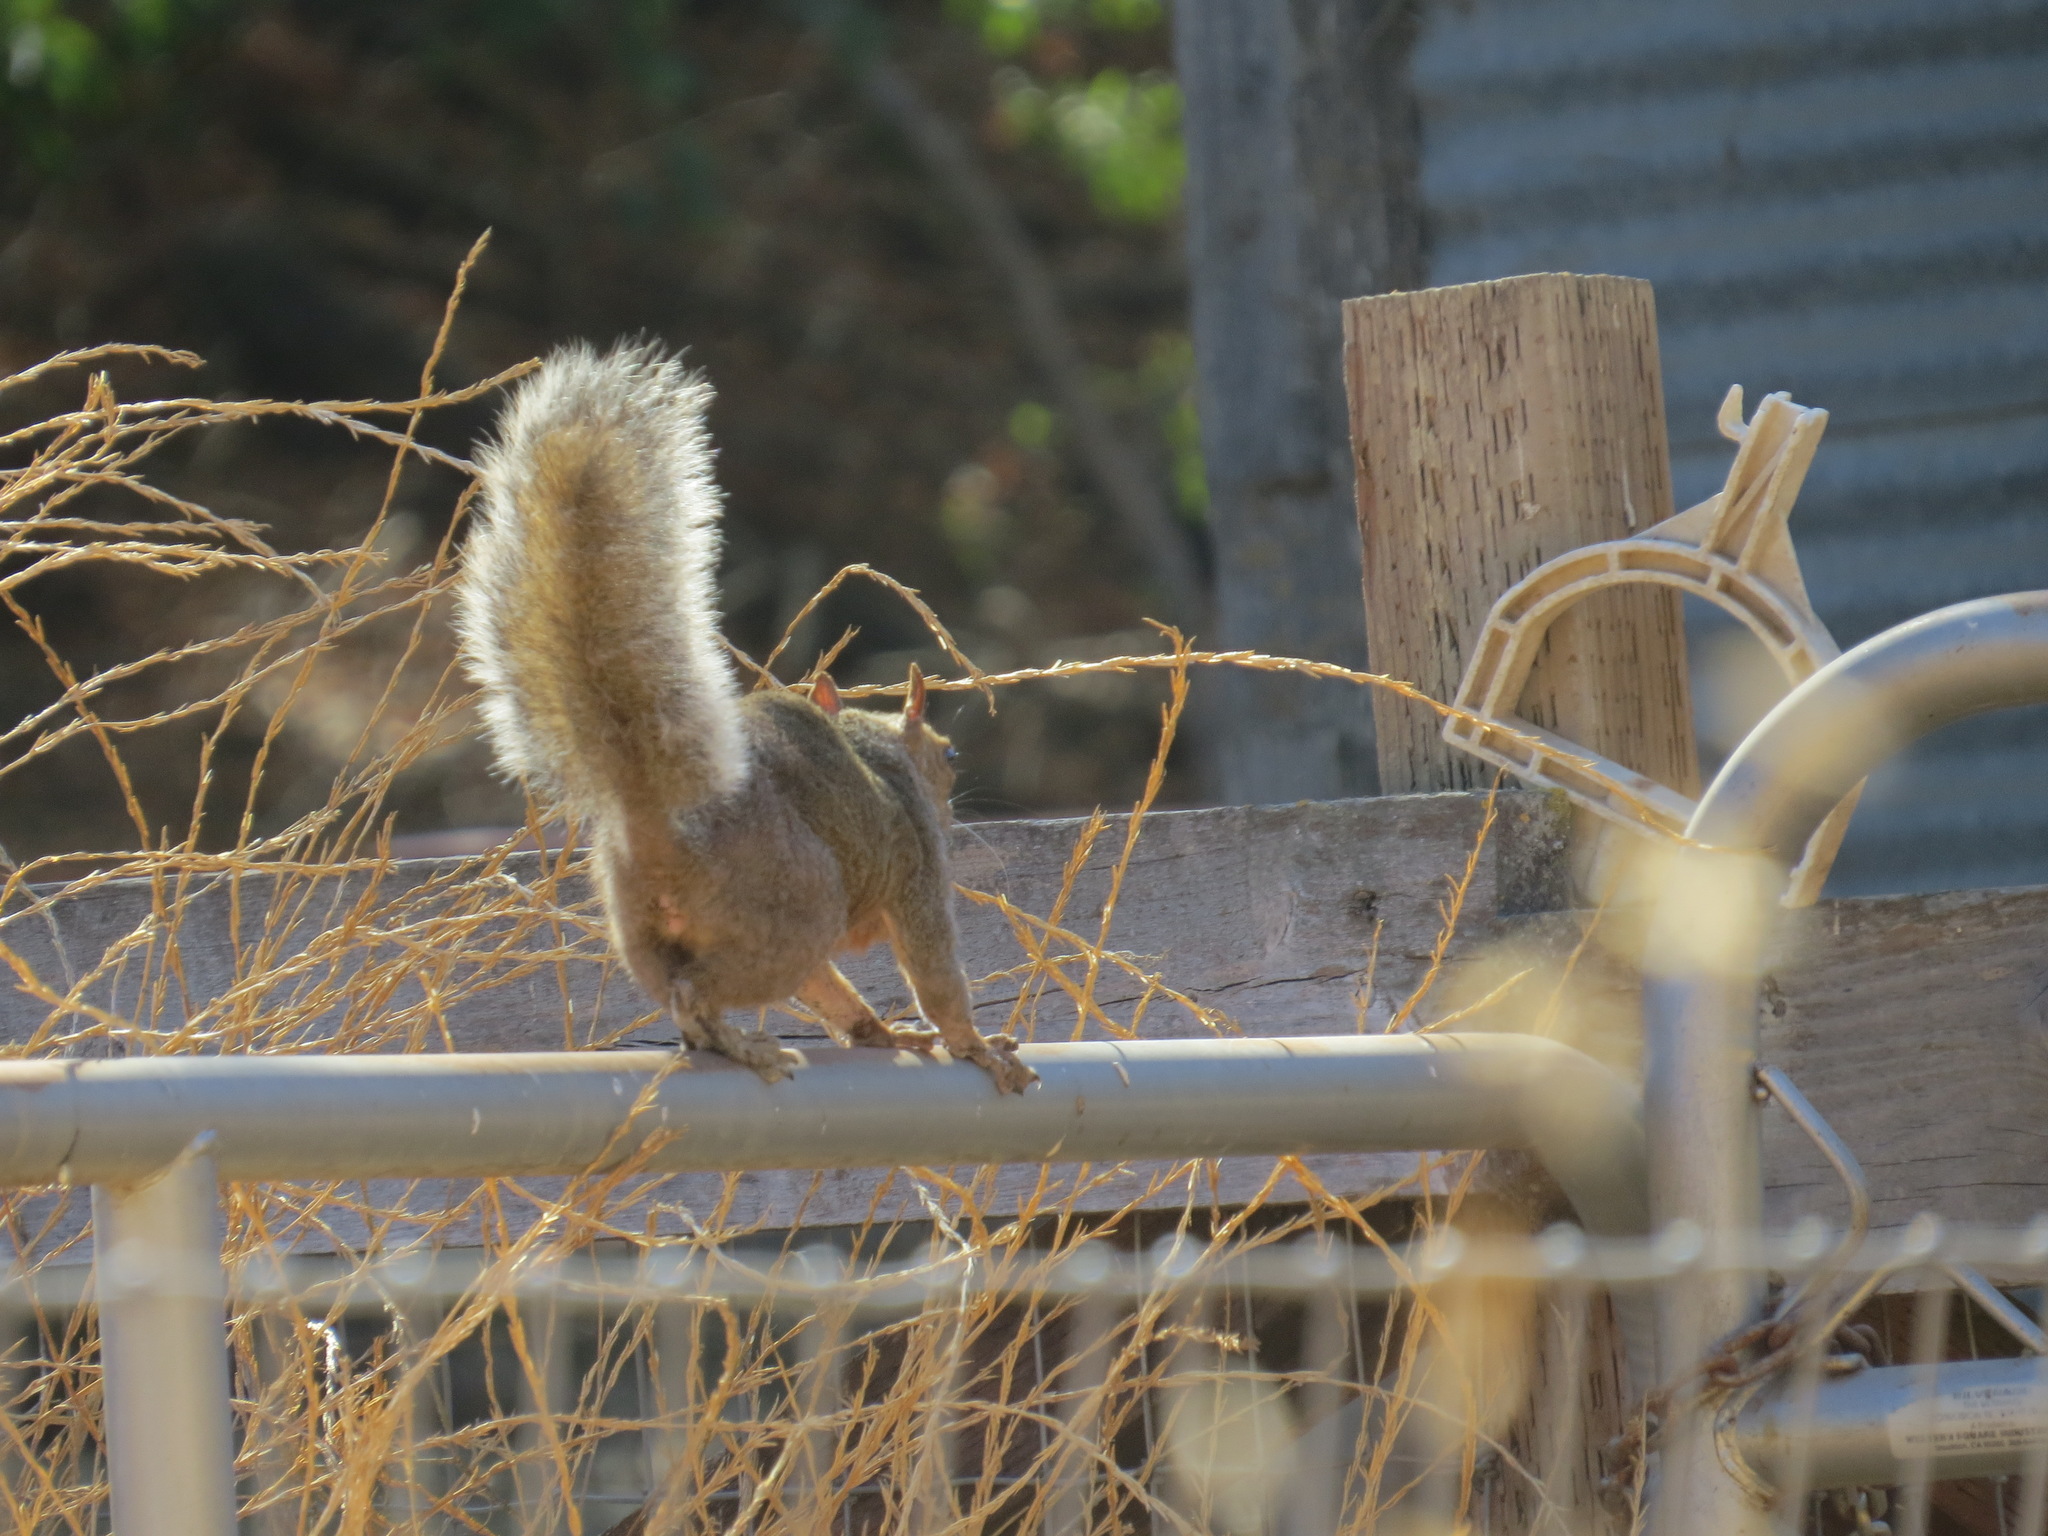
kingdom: Animalia
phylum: Chordata
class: Mammalia
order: Rodentia
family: Sciuridae
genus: Sciurus
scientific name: Sciurus carolinensis
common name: Eastern gray squirrel
